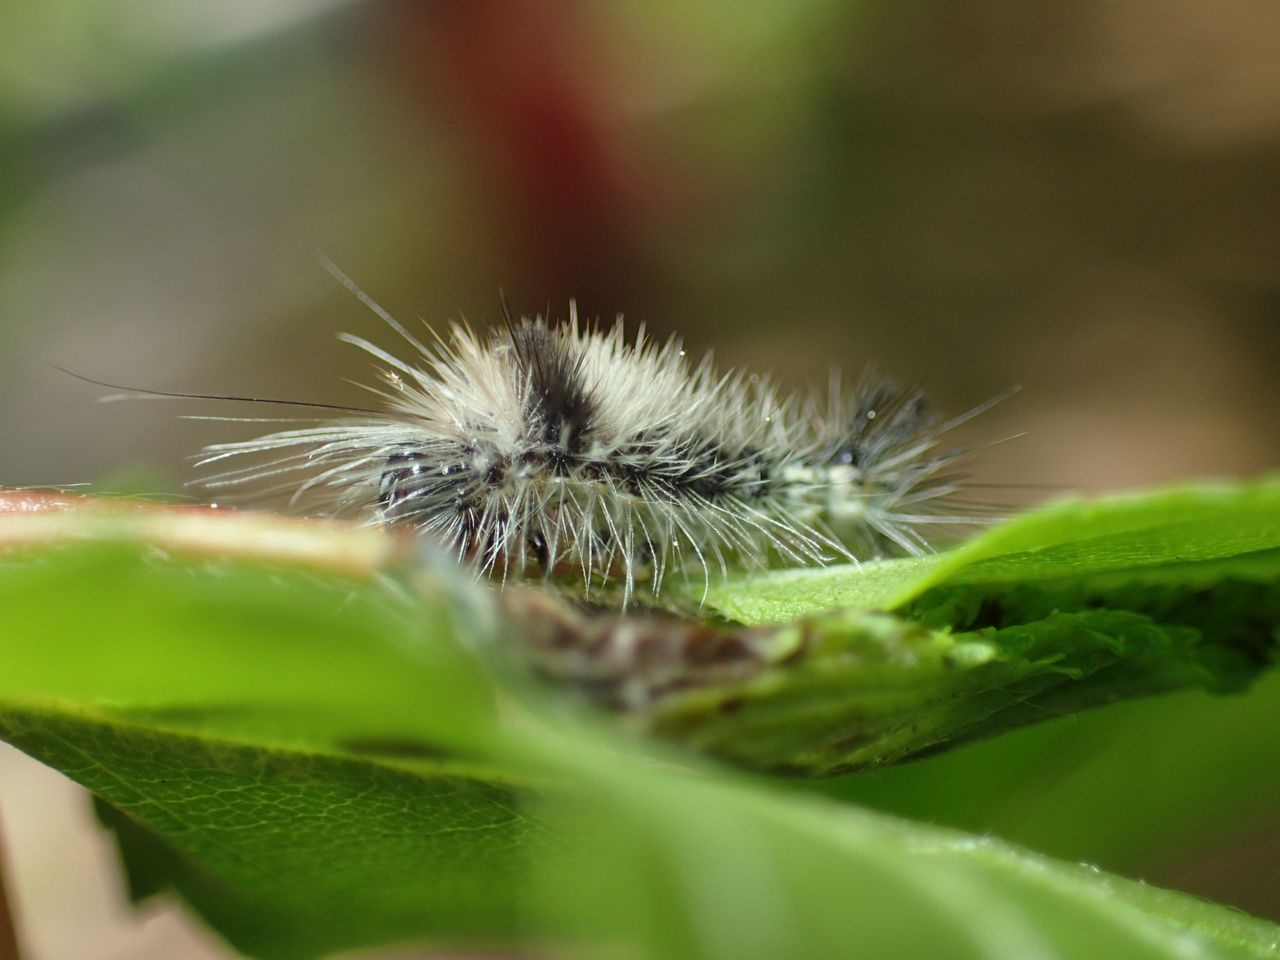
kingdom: Animalia
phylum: Arthropoda
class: Insecta
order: Lepidoptera
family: Noctuidae
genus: Acronicta
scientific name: Acronicta impleta
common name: Powdered dagger
